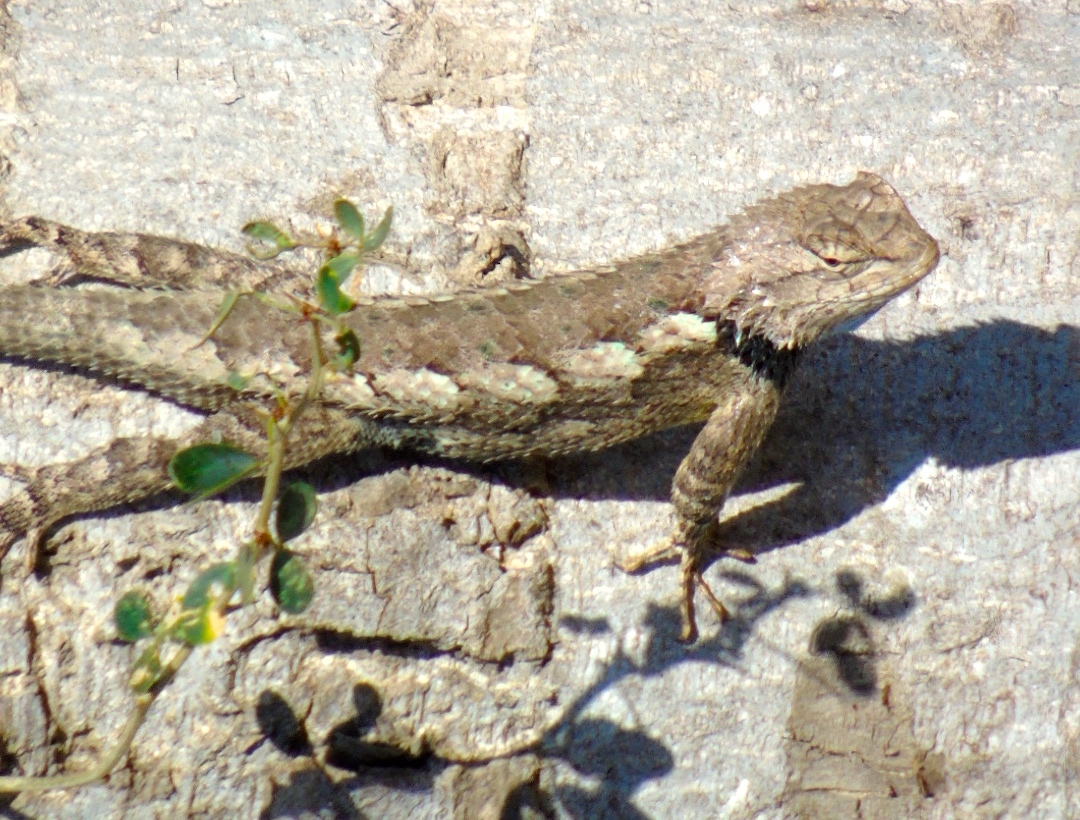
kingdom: Animalia
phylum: Chordata
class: Squamata
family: Phrynosomatidae
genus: Sceloporus
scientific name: Sceloporus clarkii
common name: Clark's spiny lizard
